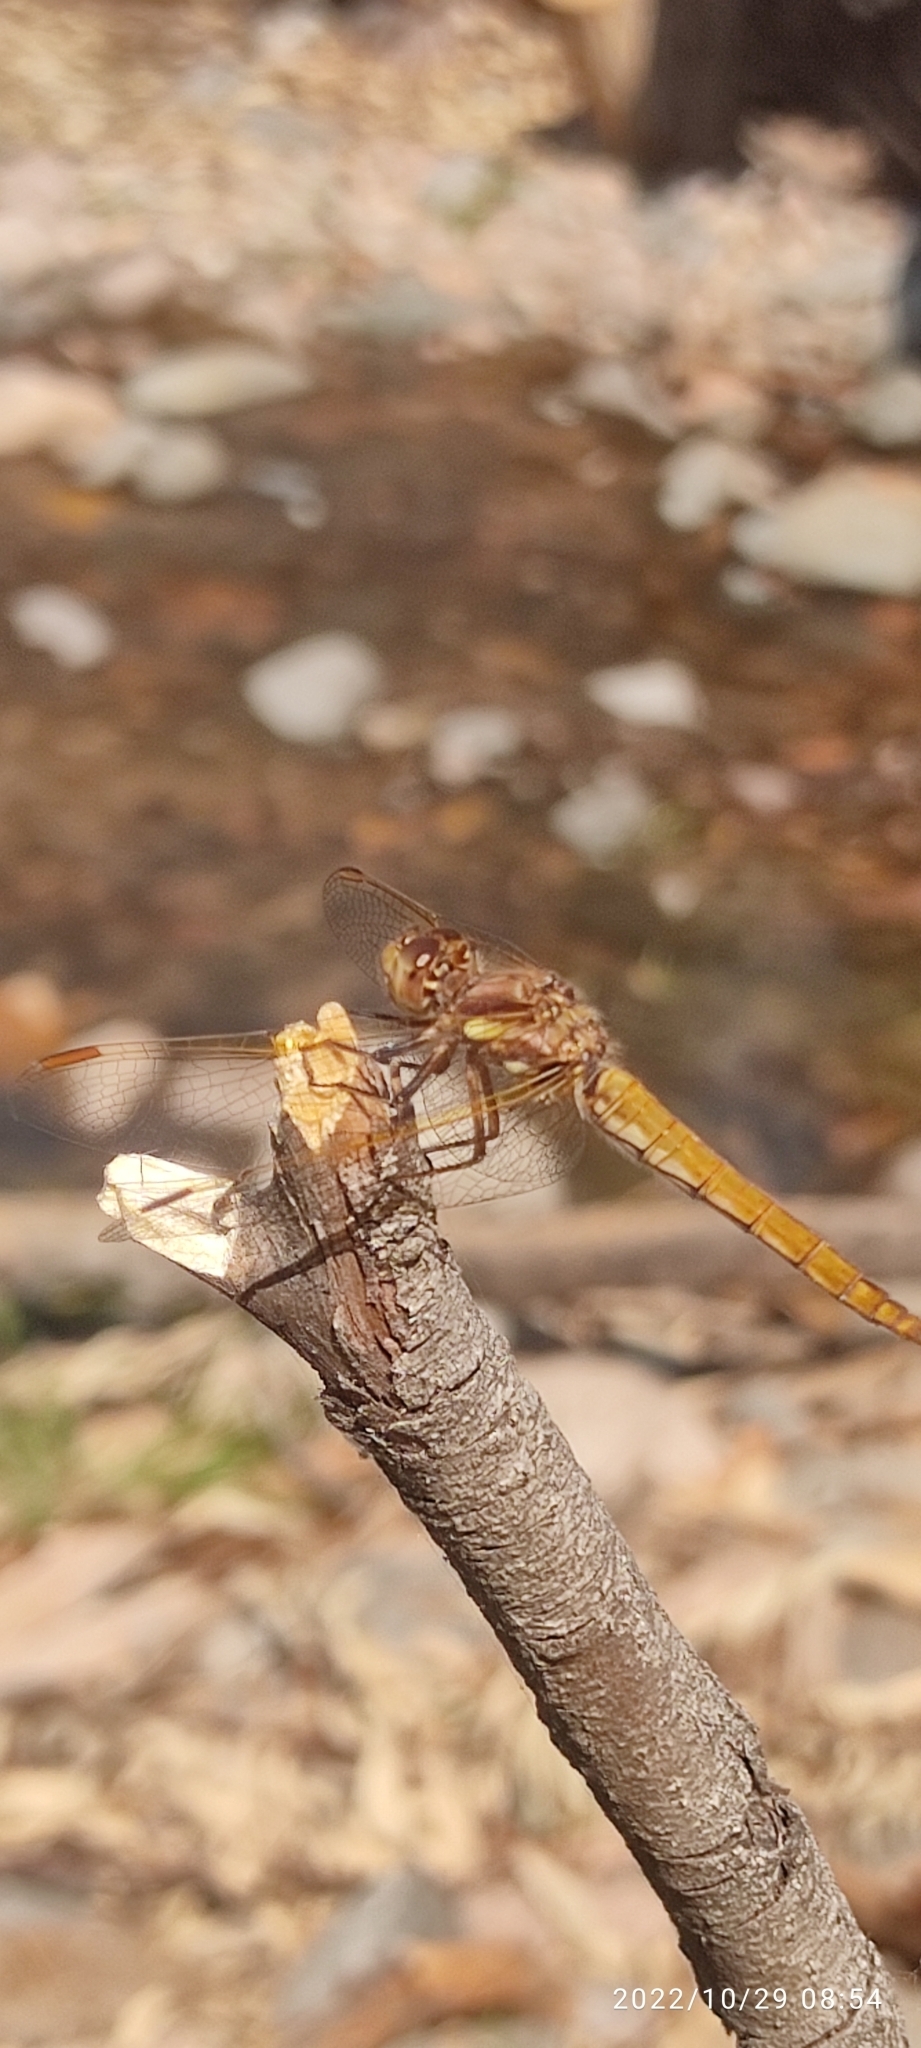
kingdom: Animalia
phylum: Arthropoda
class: Insecta
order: Odonata
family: Libellulidae
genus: Sympetrum
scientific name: Sympetrum gilvum
